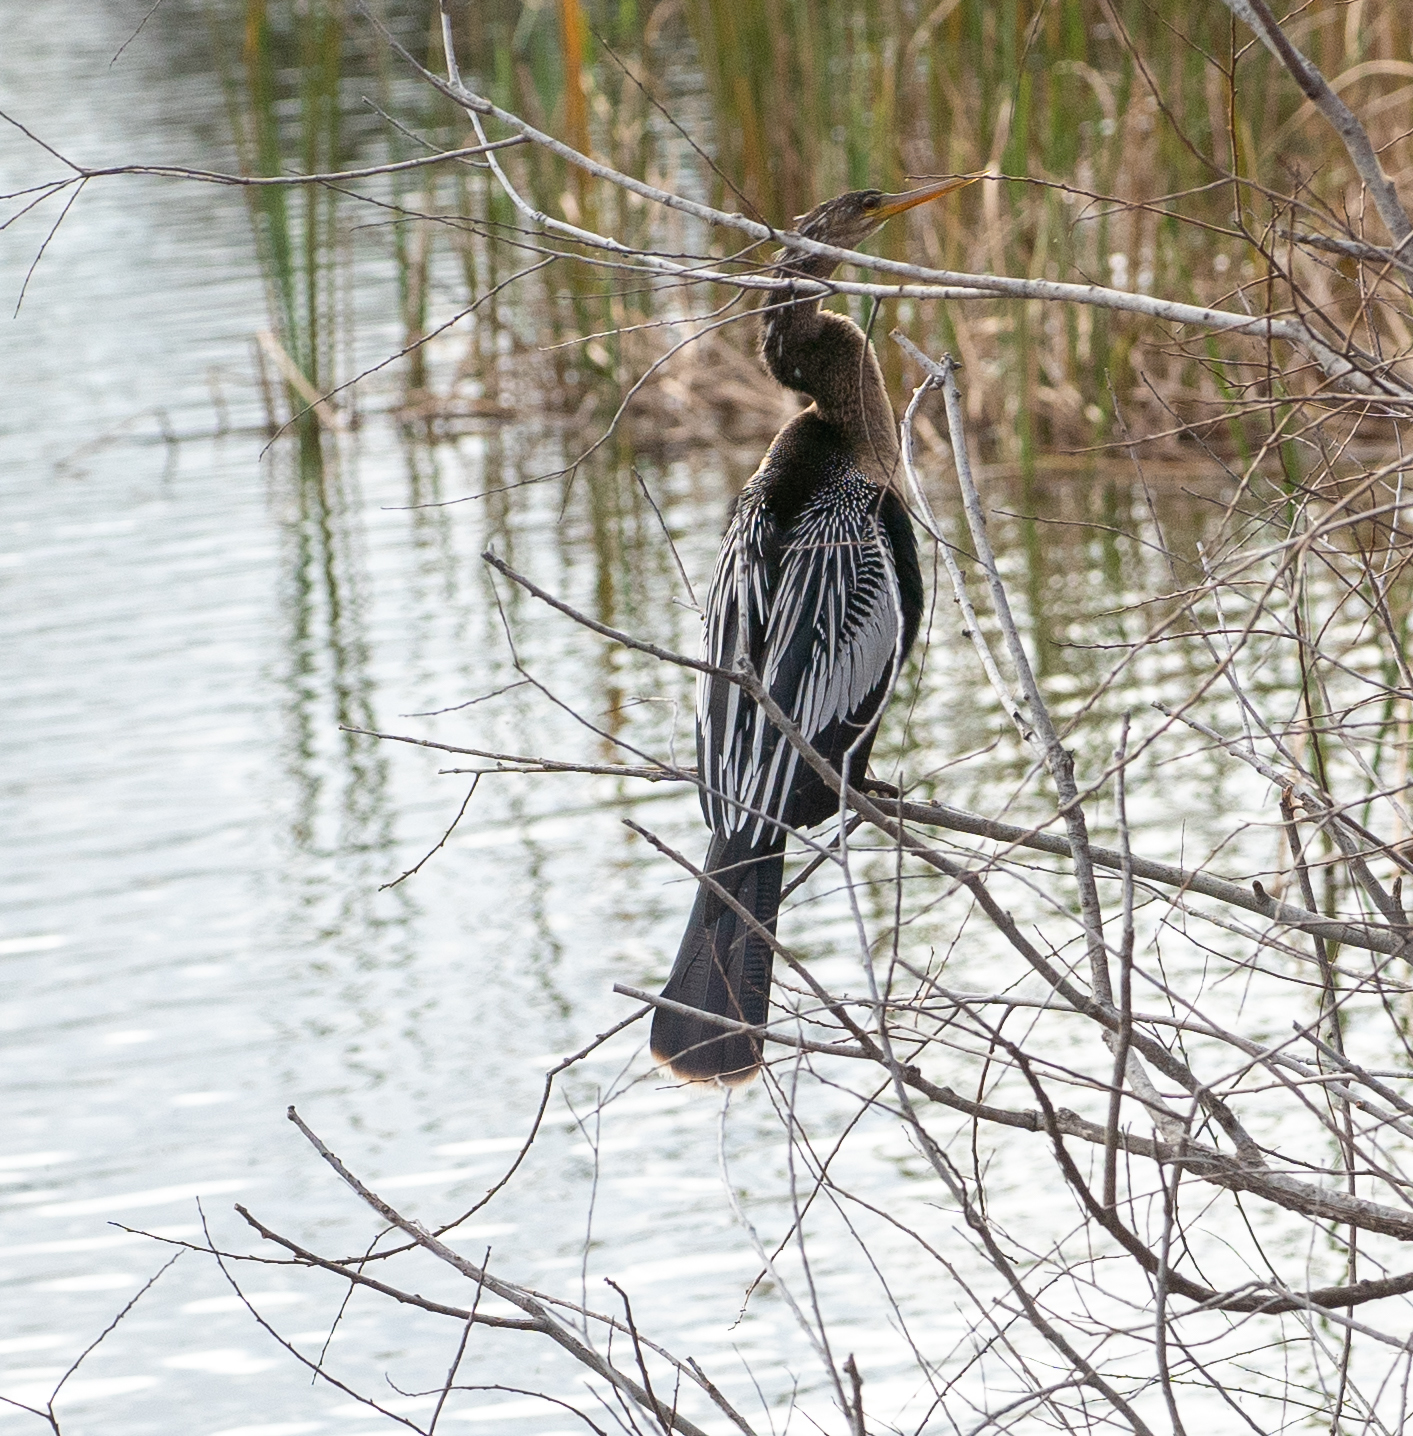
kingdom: Animalia
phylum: Chordata
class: Aves
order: Suliformes
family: Anhingidae
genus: Anhinga
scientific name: Anhinga anhinga
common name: Anhinga
